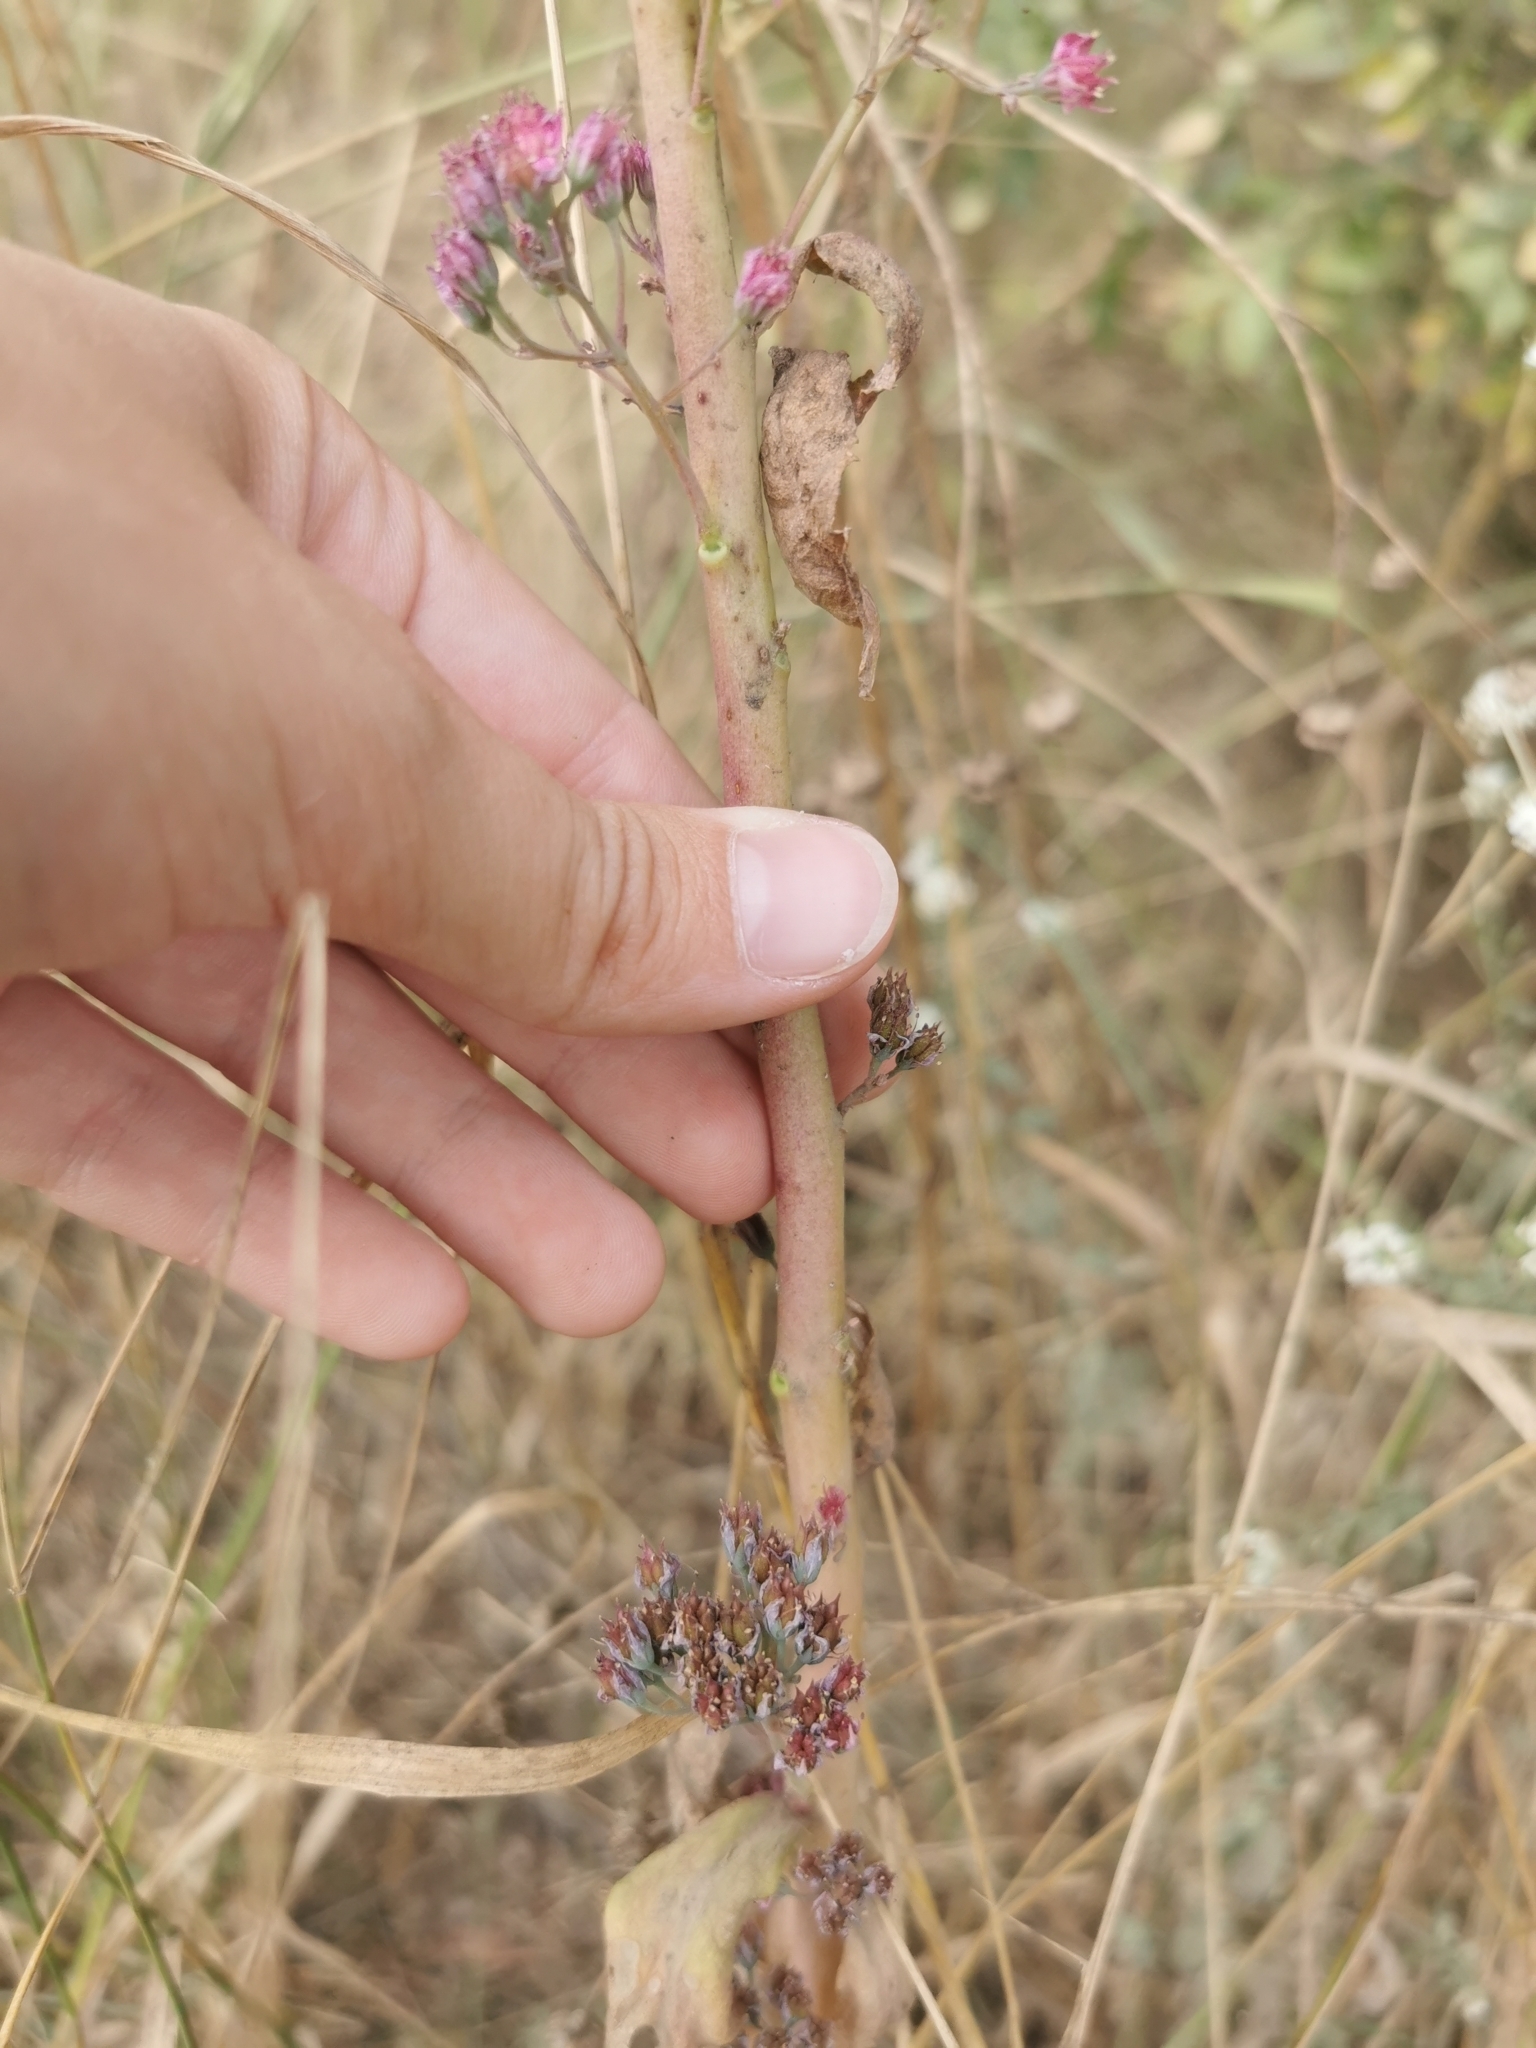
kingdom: Plantae
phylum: Tracheophyta
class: Magnoliopsida
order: Saxifragales
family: Crassulaceae
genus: Hylotelephium
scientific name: Hylotelephium telephium
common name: Live-forever
